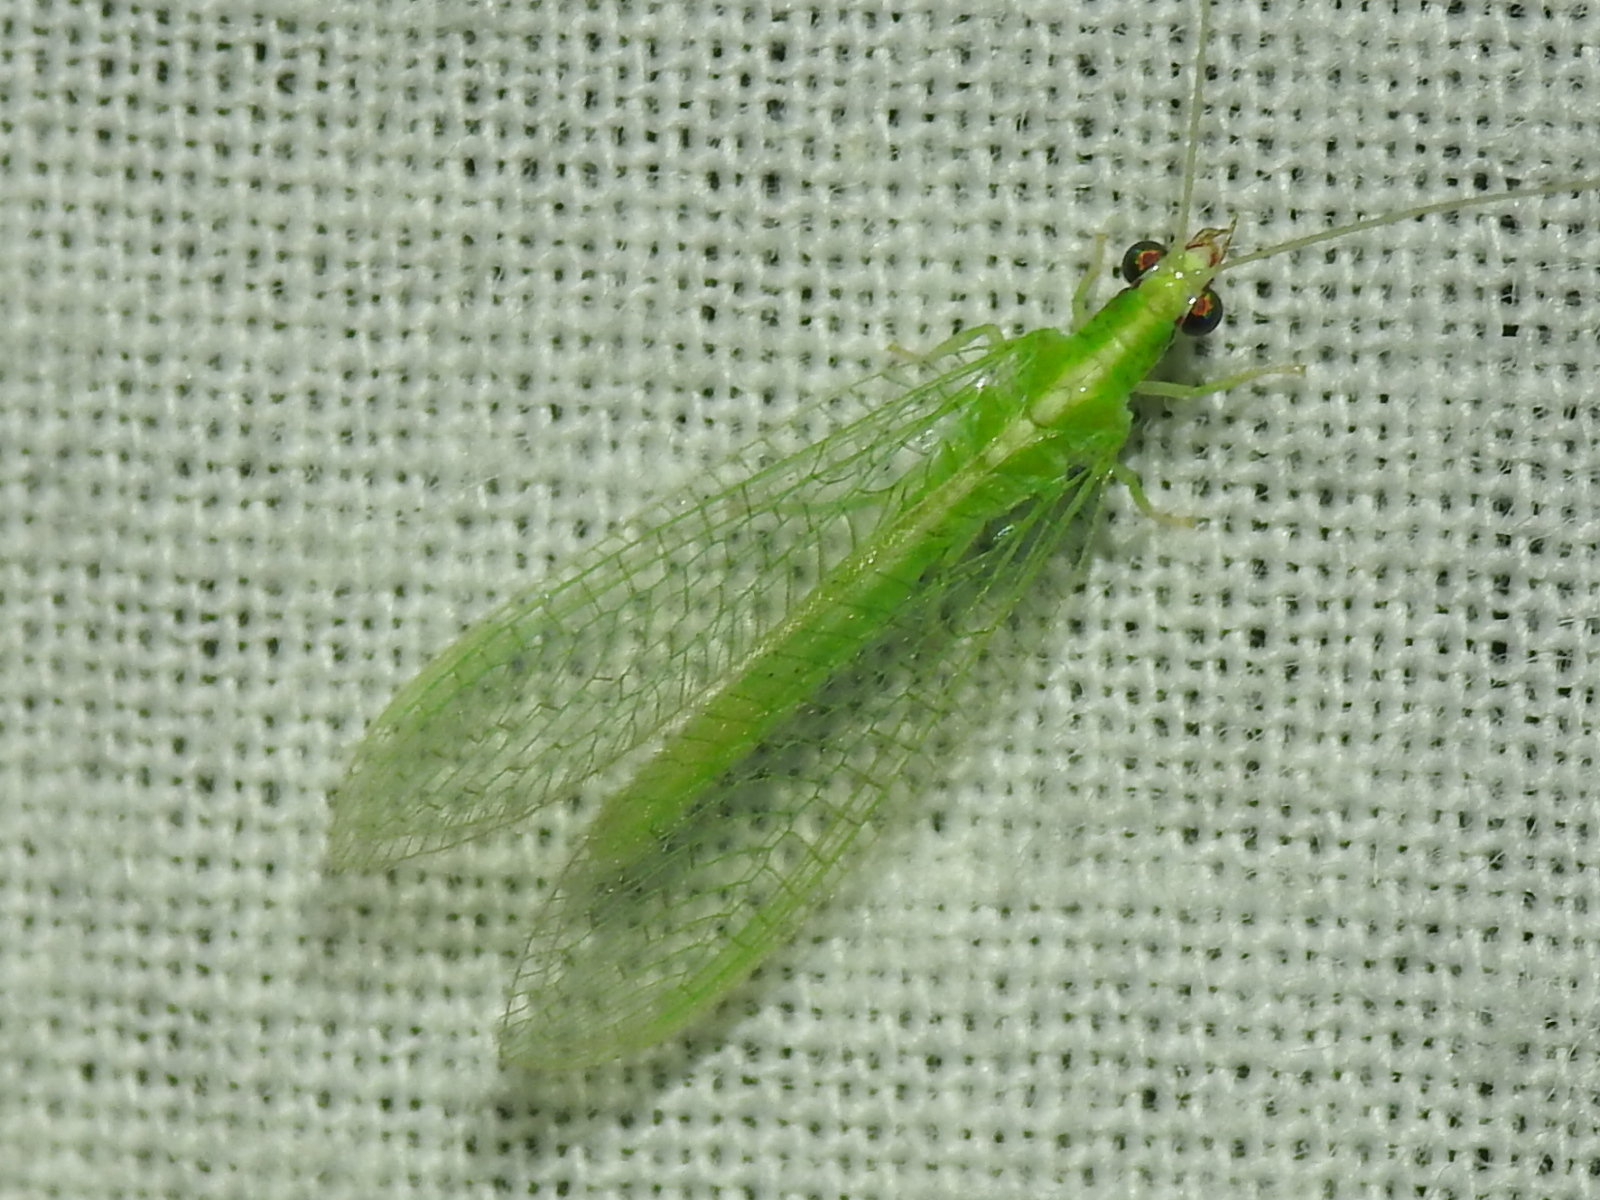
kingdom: Animalia
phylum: Arthropoda
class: Insecta
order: Neuroptera
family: Chrysopidae
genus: Chrysoperla
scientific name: Chrysoperla rufilabris
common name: Red-lipped green lacewing
